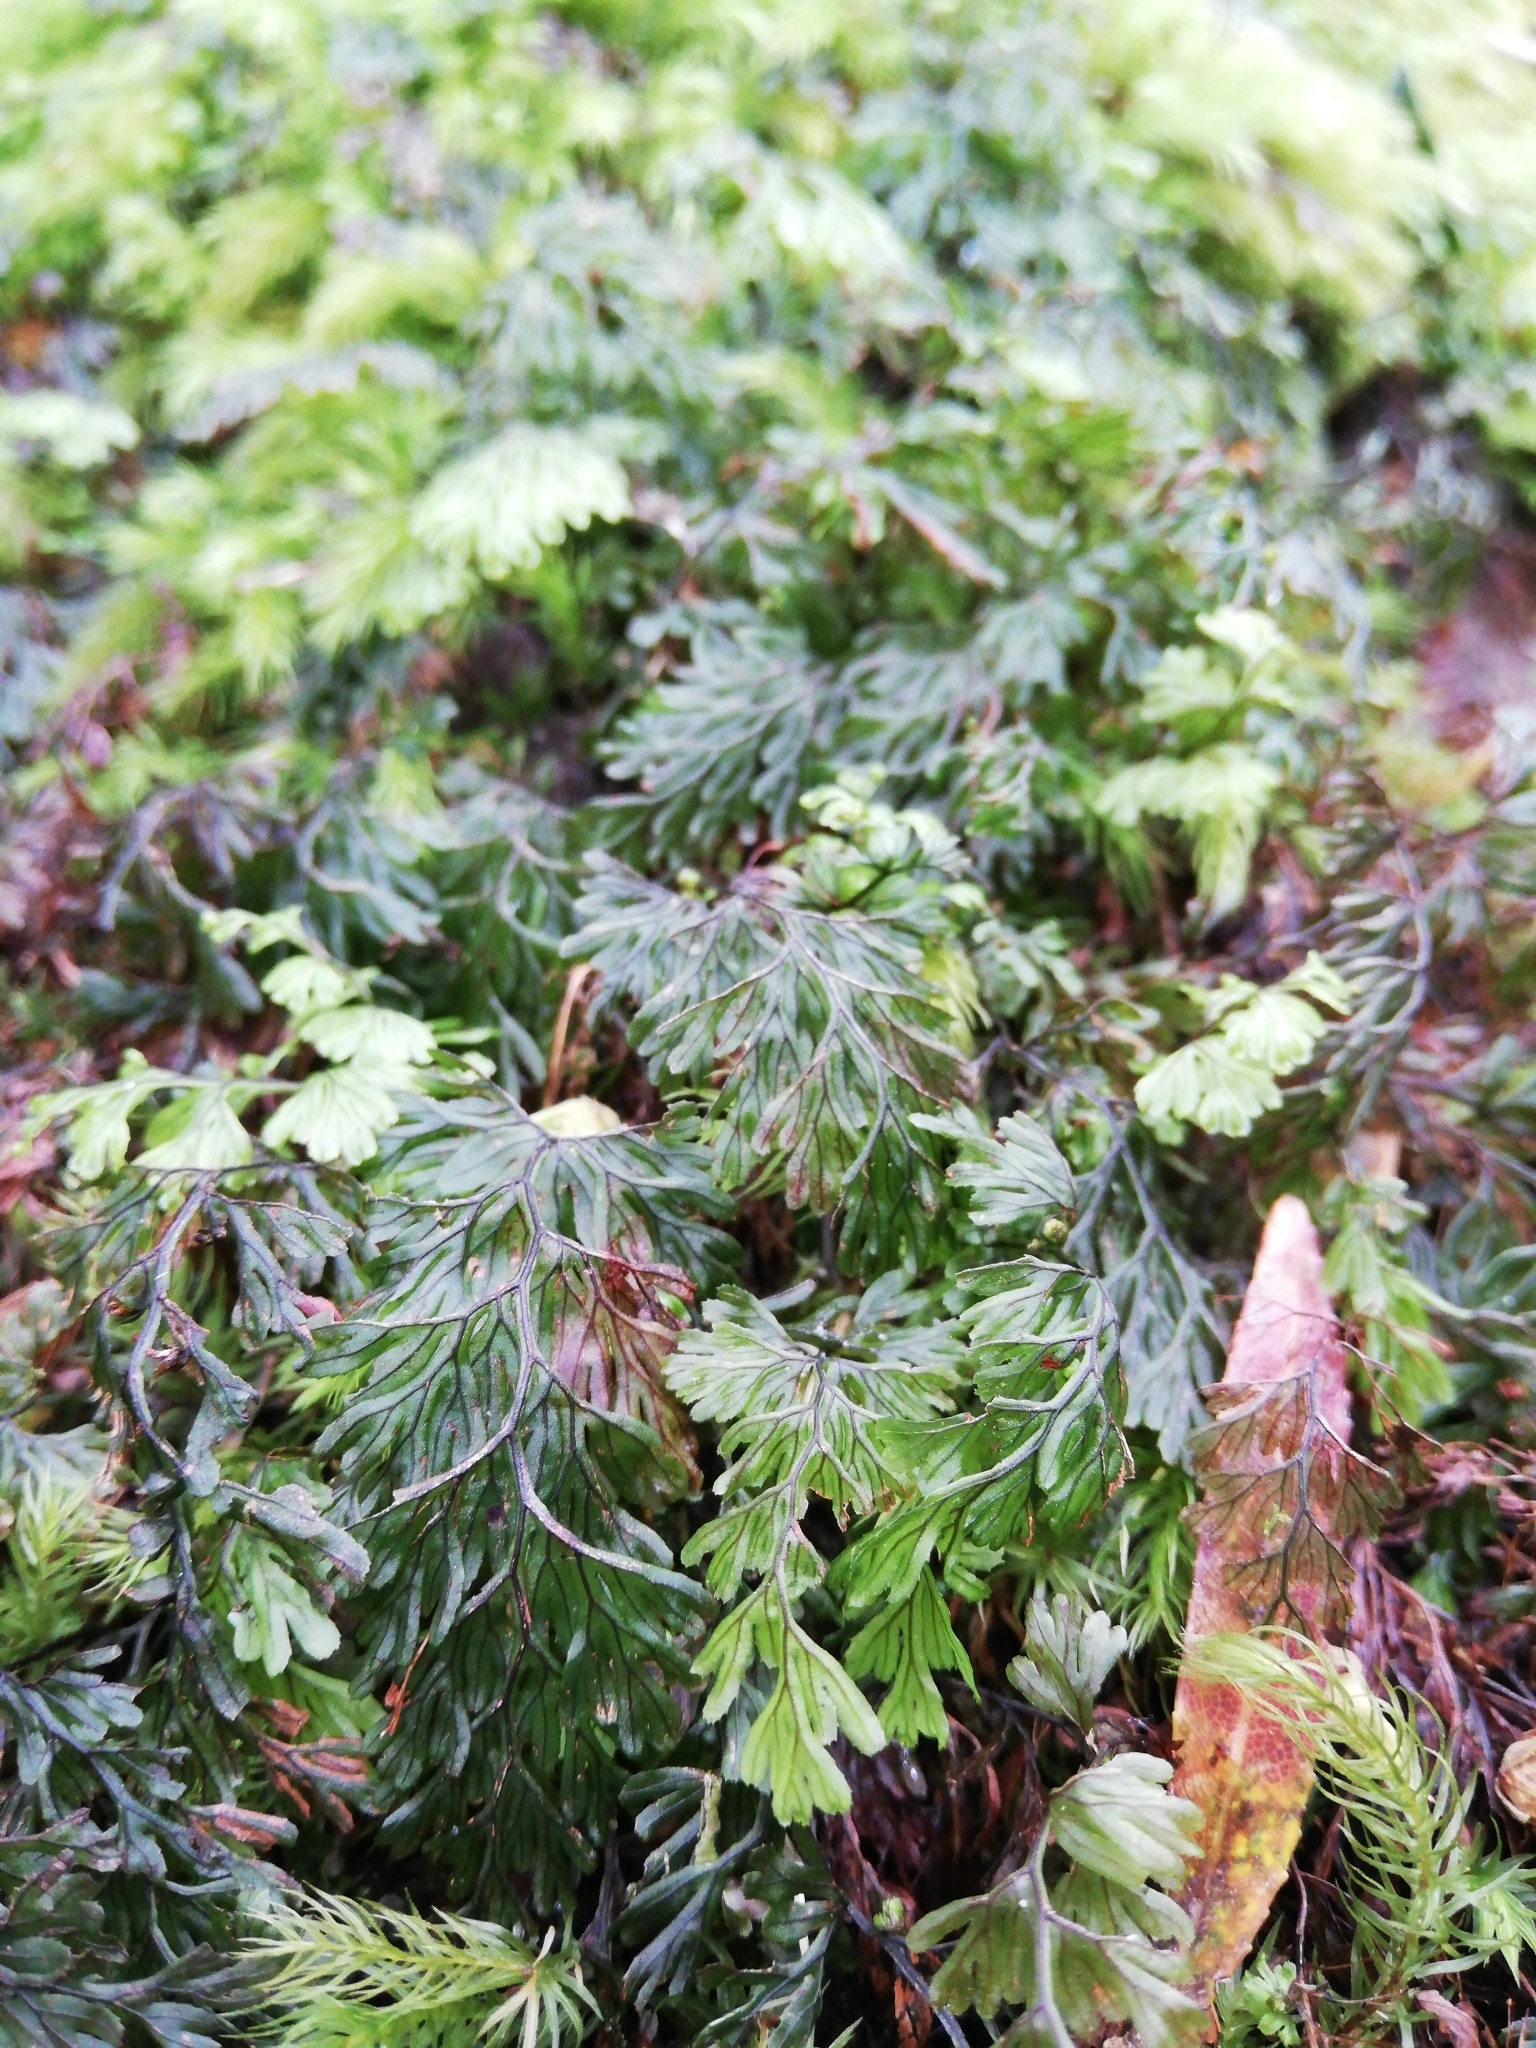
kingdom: Plantae
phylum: Tracheophyta
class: Polypodiopsida
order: Hymenophyllales
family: Hymenophyllaceae
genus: Hymenophyllum
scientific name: Hymenophyllum tunbrigense
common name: Tunbridge filmy fern
